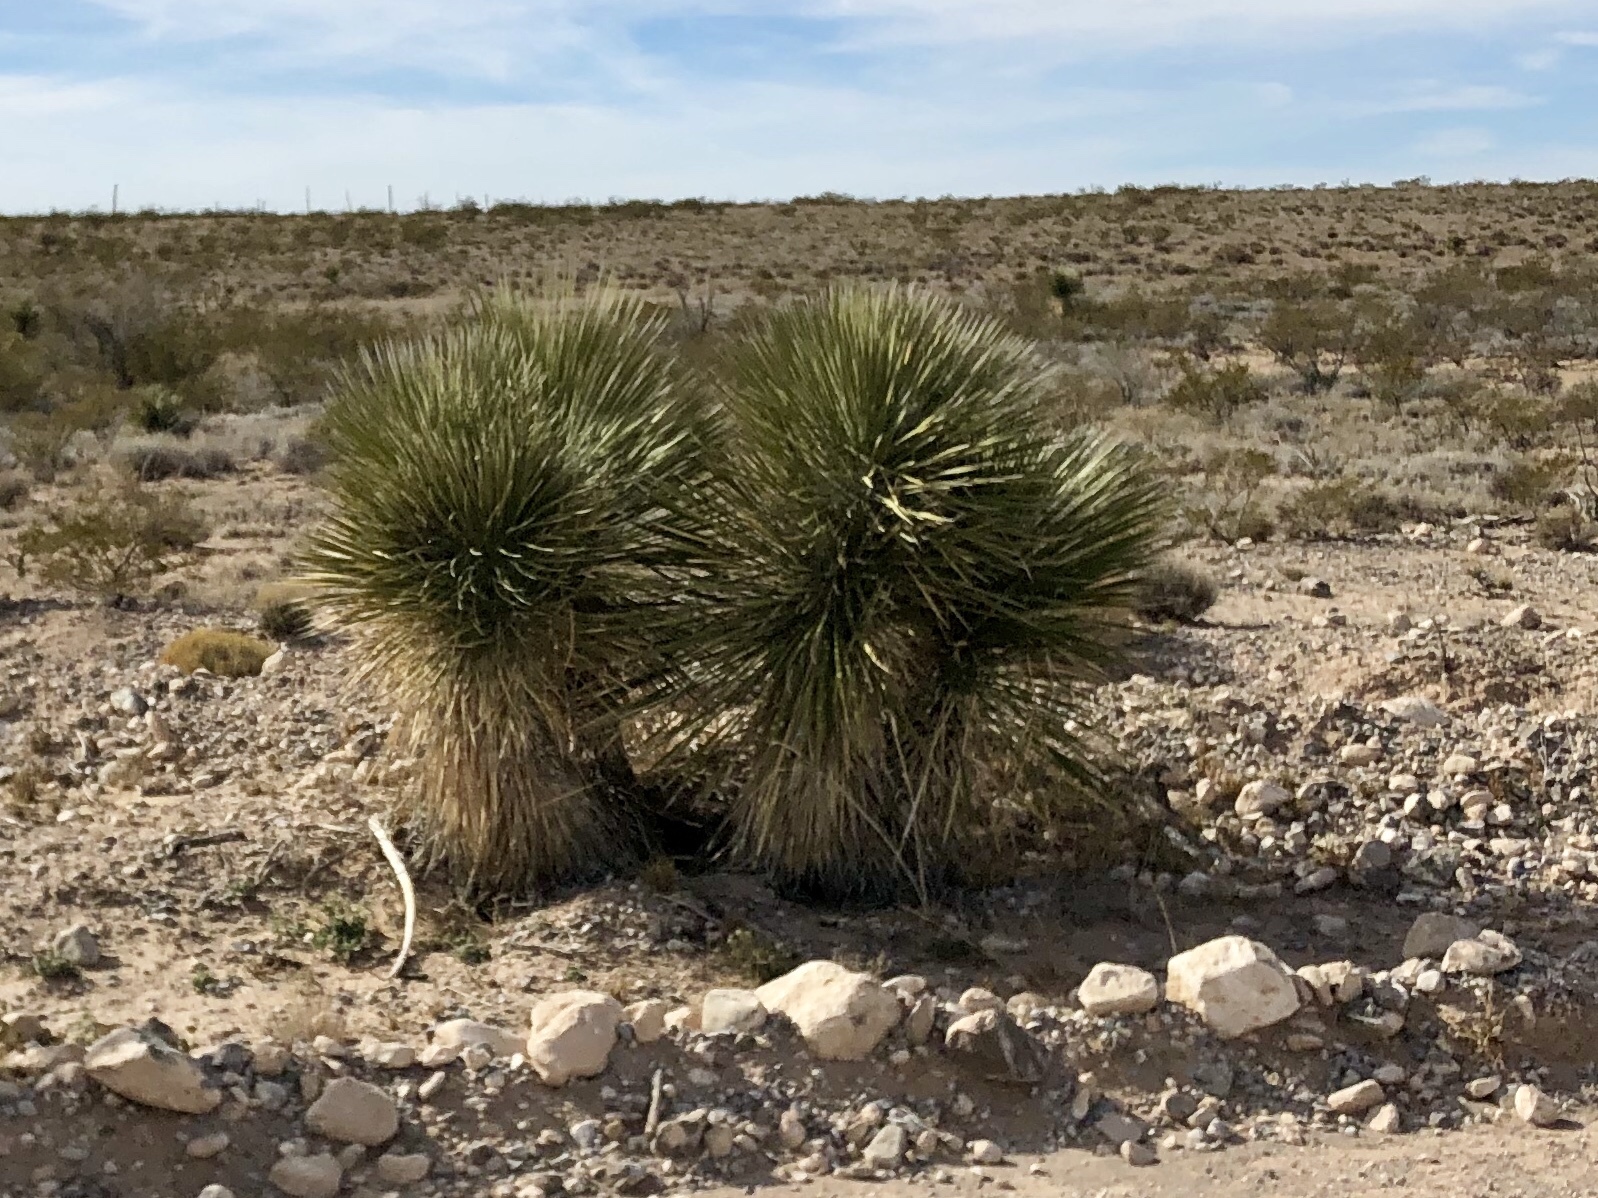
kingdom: Plantae
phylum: Tracheophyta
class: Liliopsida
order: Asparagales
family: Asparagaceae
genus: Yucca
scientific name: Yucca elata
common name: Palmella
